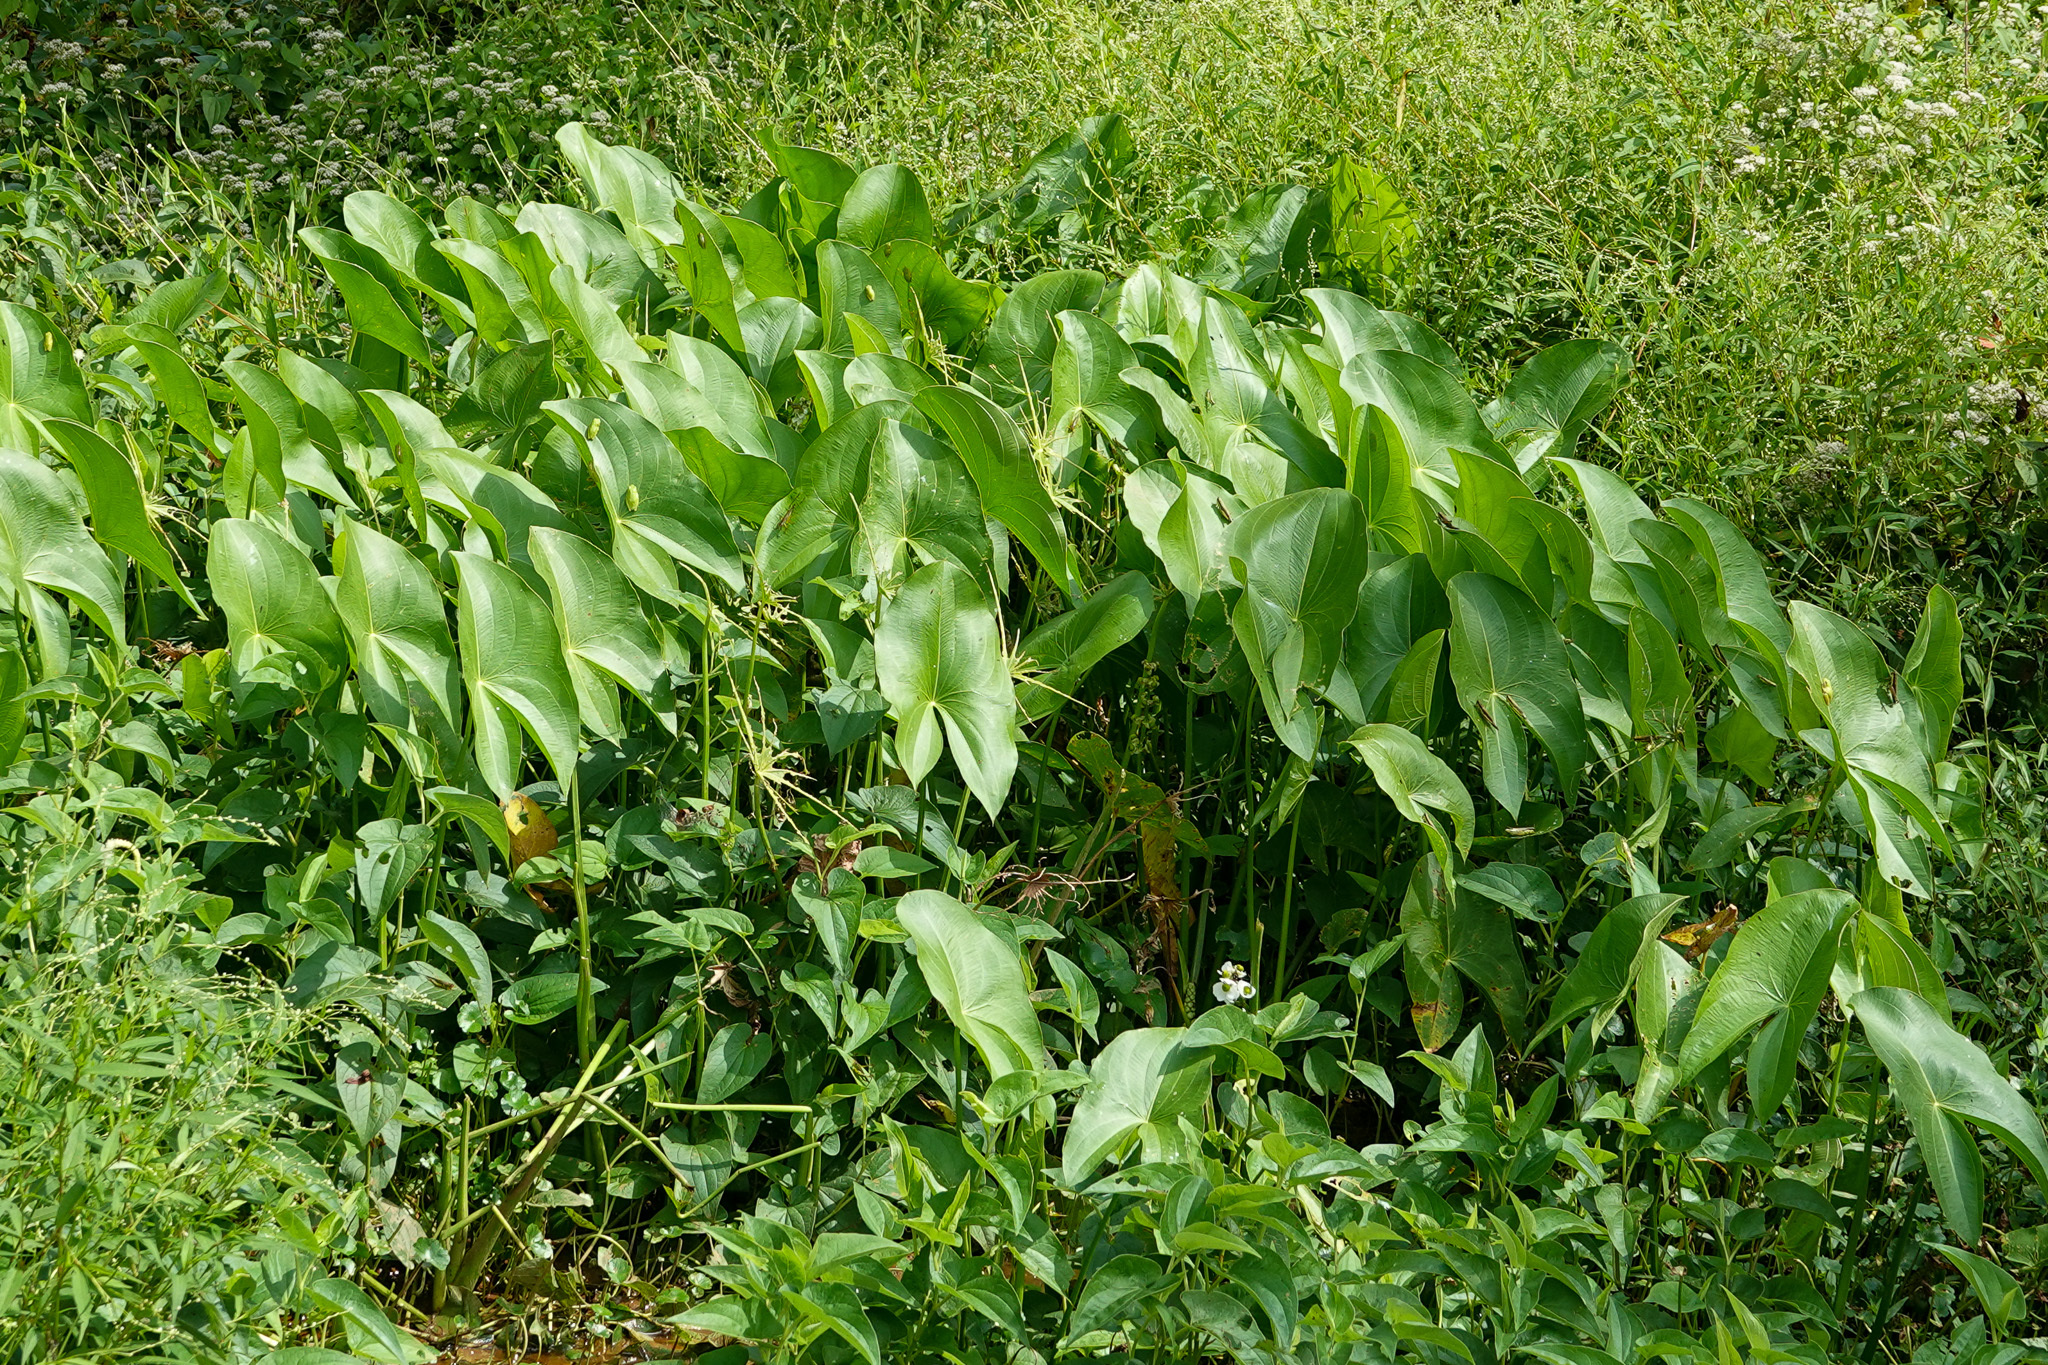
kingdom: Plantae
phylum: Tracheophyta
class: Liliopsida
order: Alismatales
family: Alismataceae
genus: Sagittaria
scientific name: Sagittaria latifolia
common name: Duck-potato
